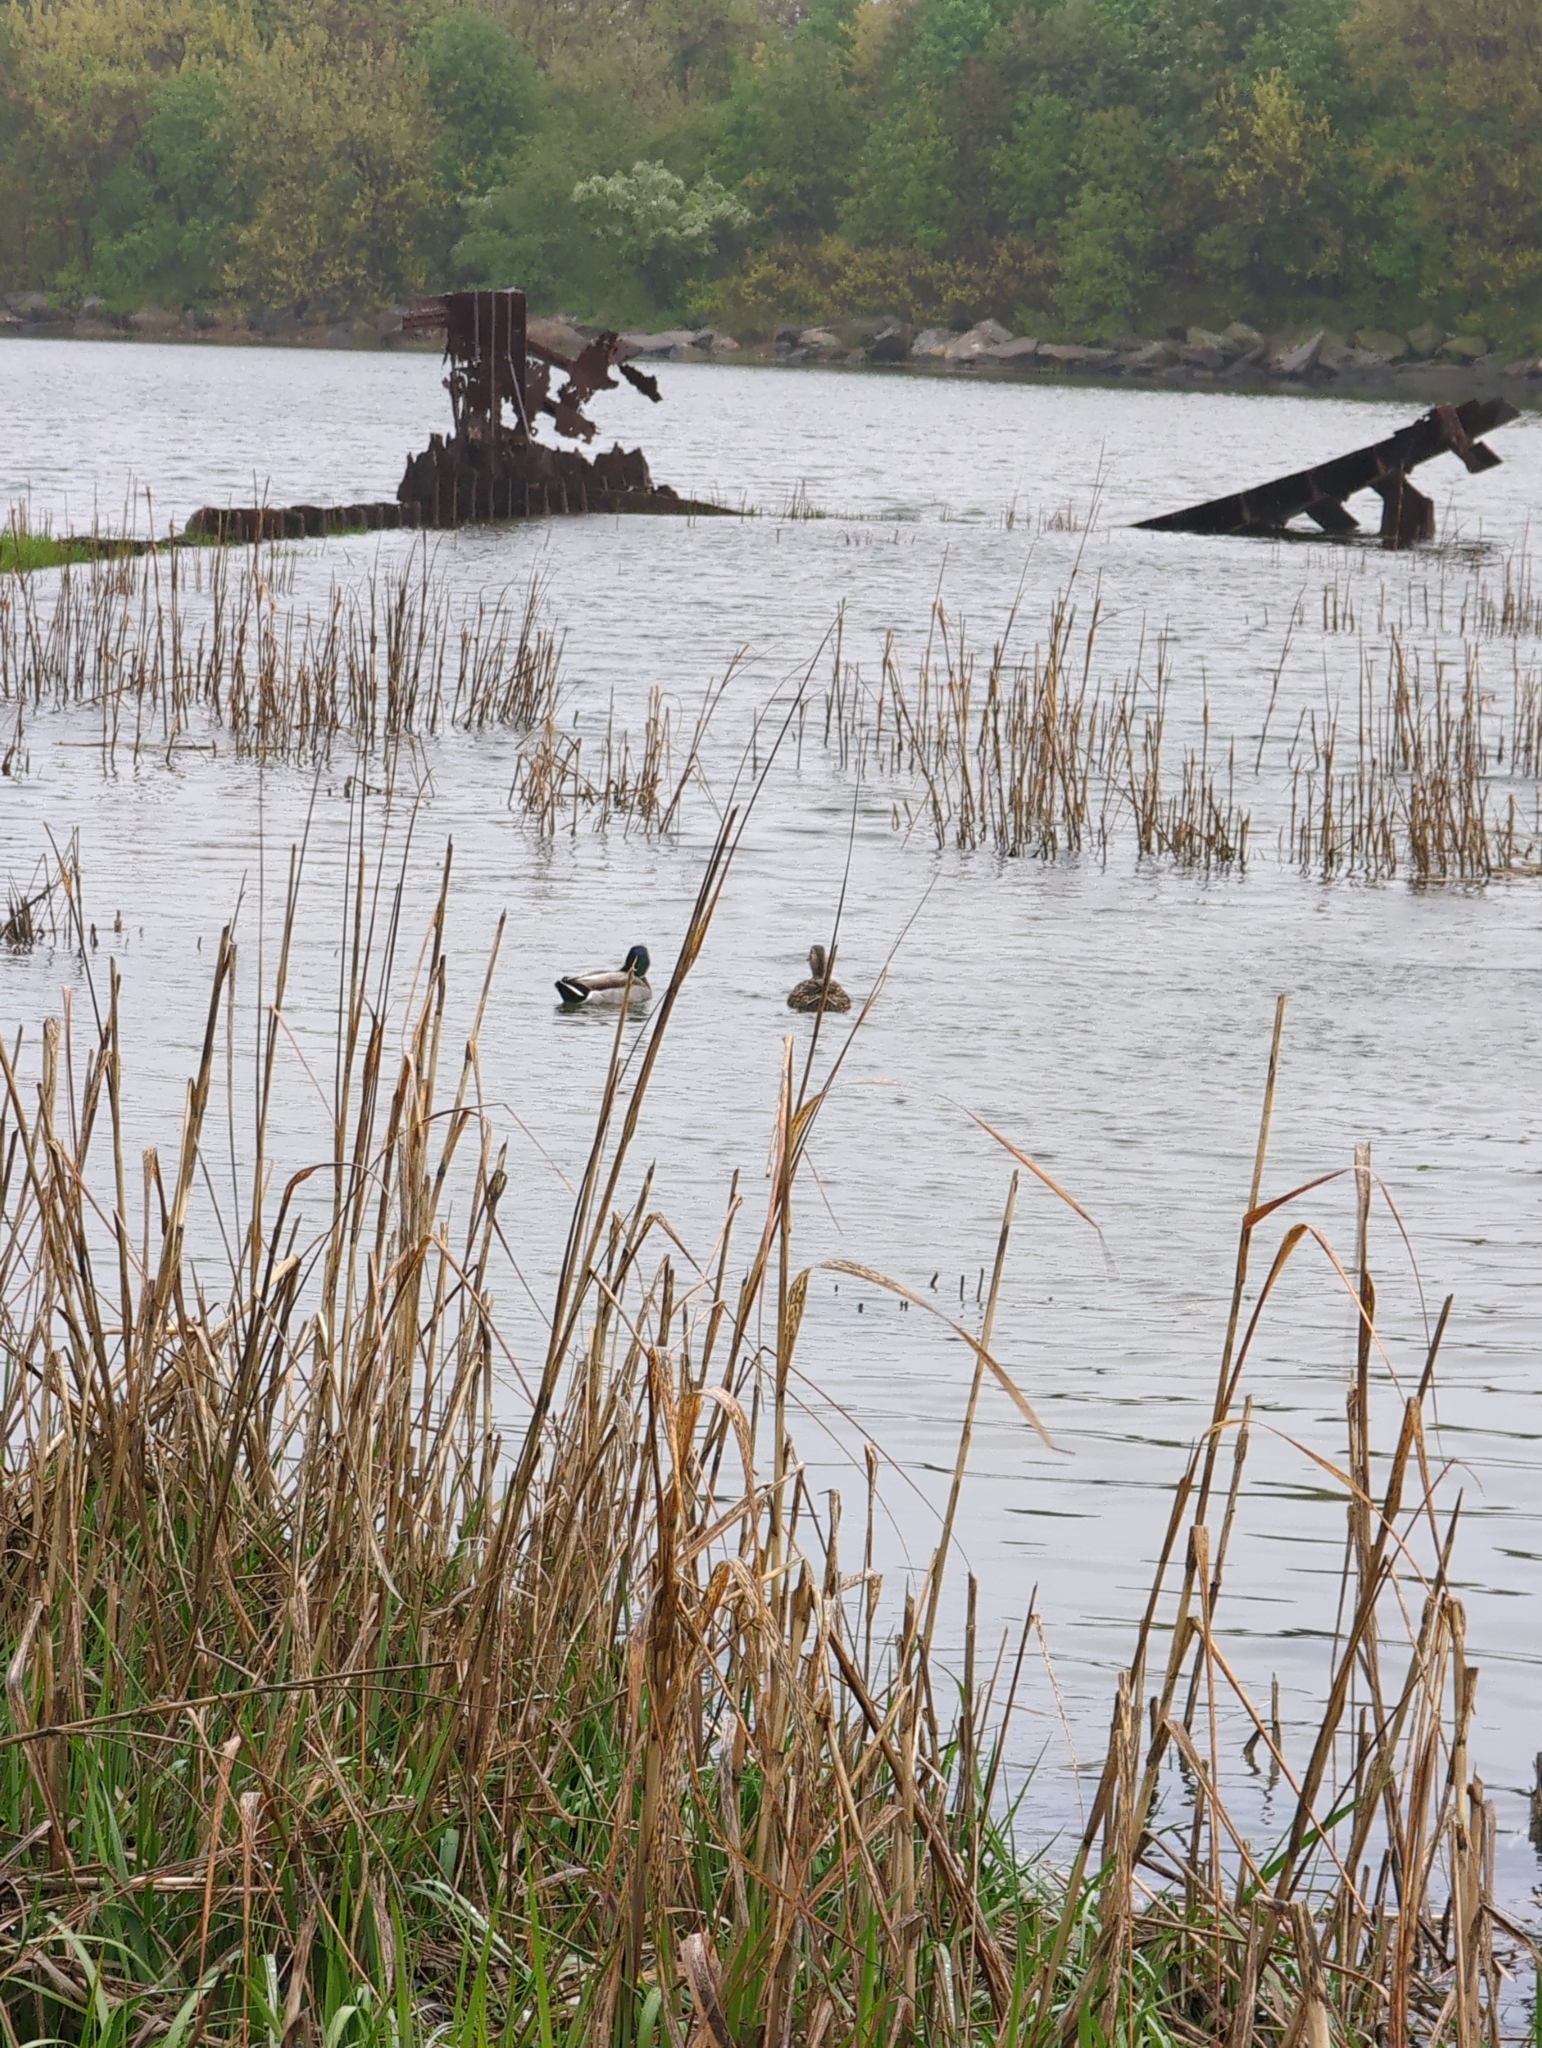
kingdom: Animalia
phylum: Chordata
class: Aves
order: Anseriformes
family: Anatidae
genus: Anas
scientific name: Anas platyrhynchos
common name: Mallard
